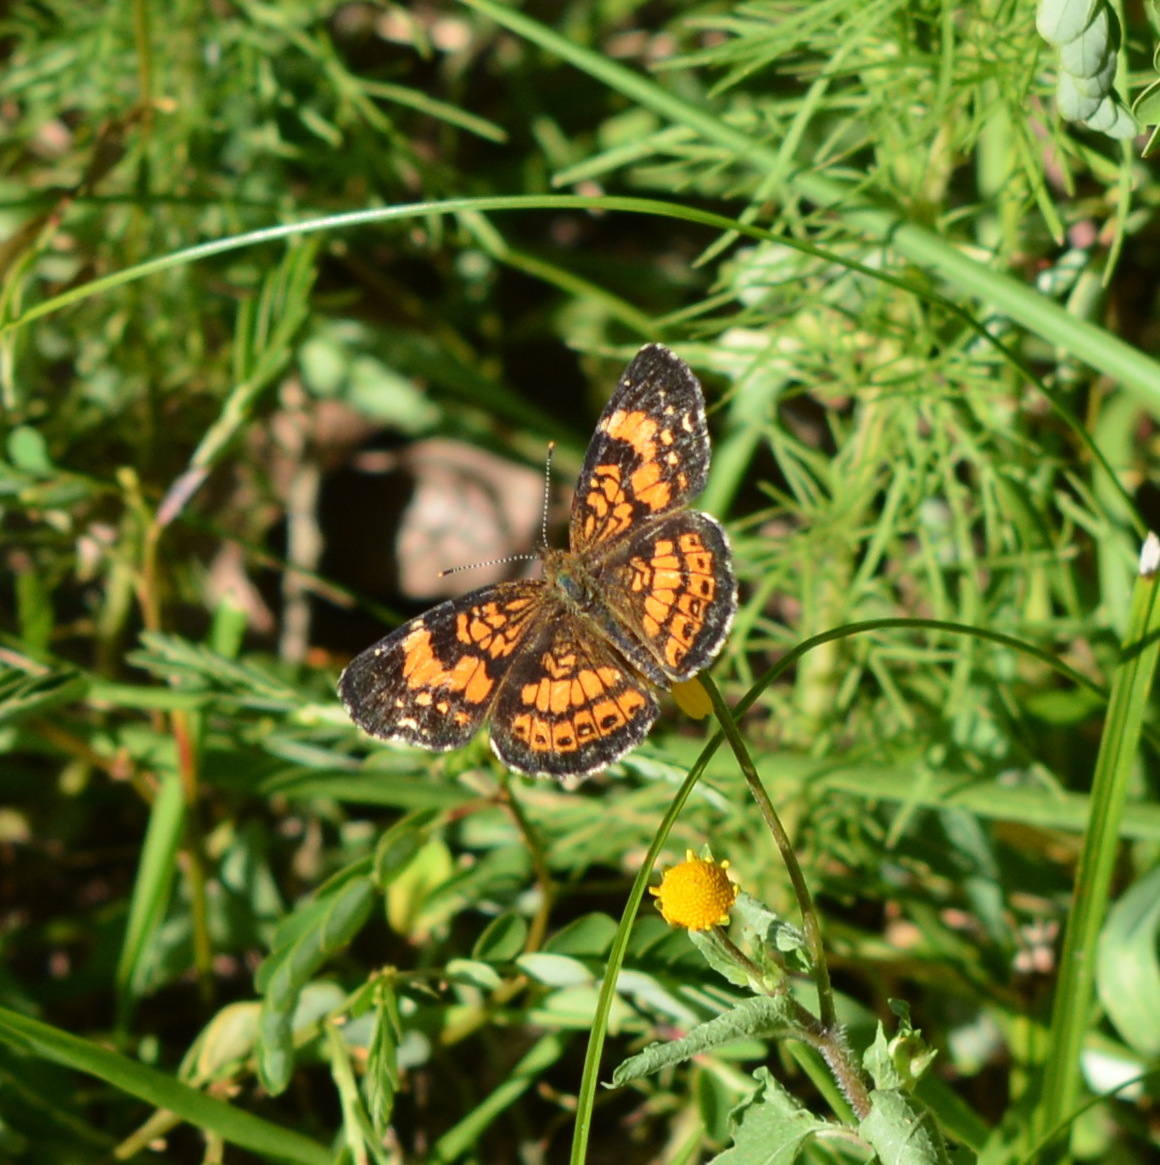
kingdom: Animalia
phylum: Arthropoda
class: Insecta
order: Lepidoptera
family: Nymphalidae
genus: Chlosyne
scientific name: Chlosyne nycteis
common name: Silvery checkerspot
